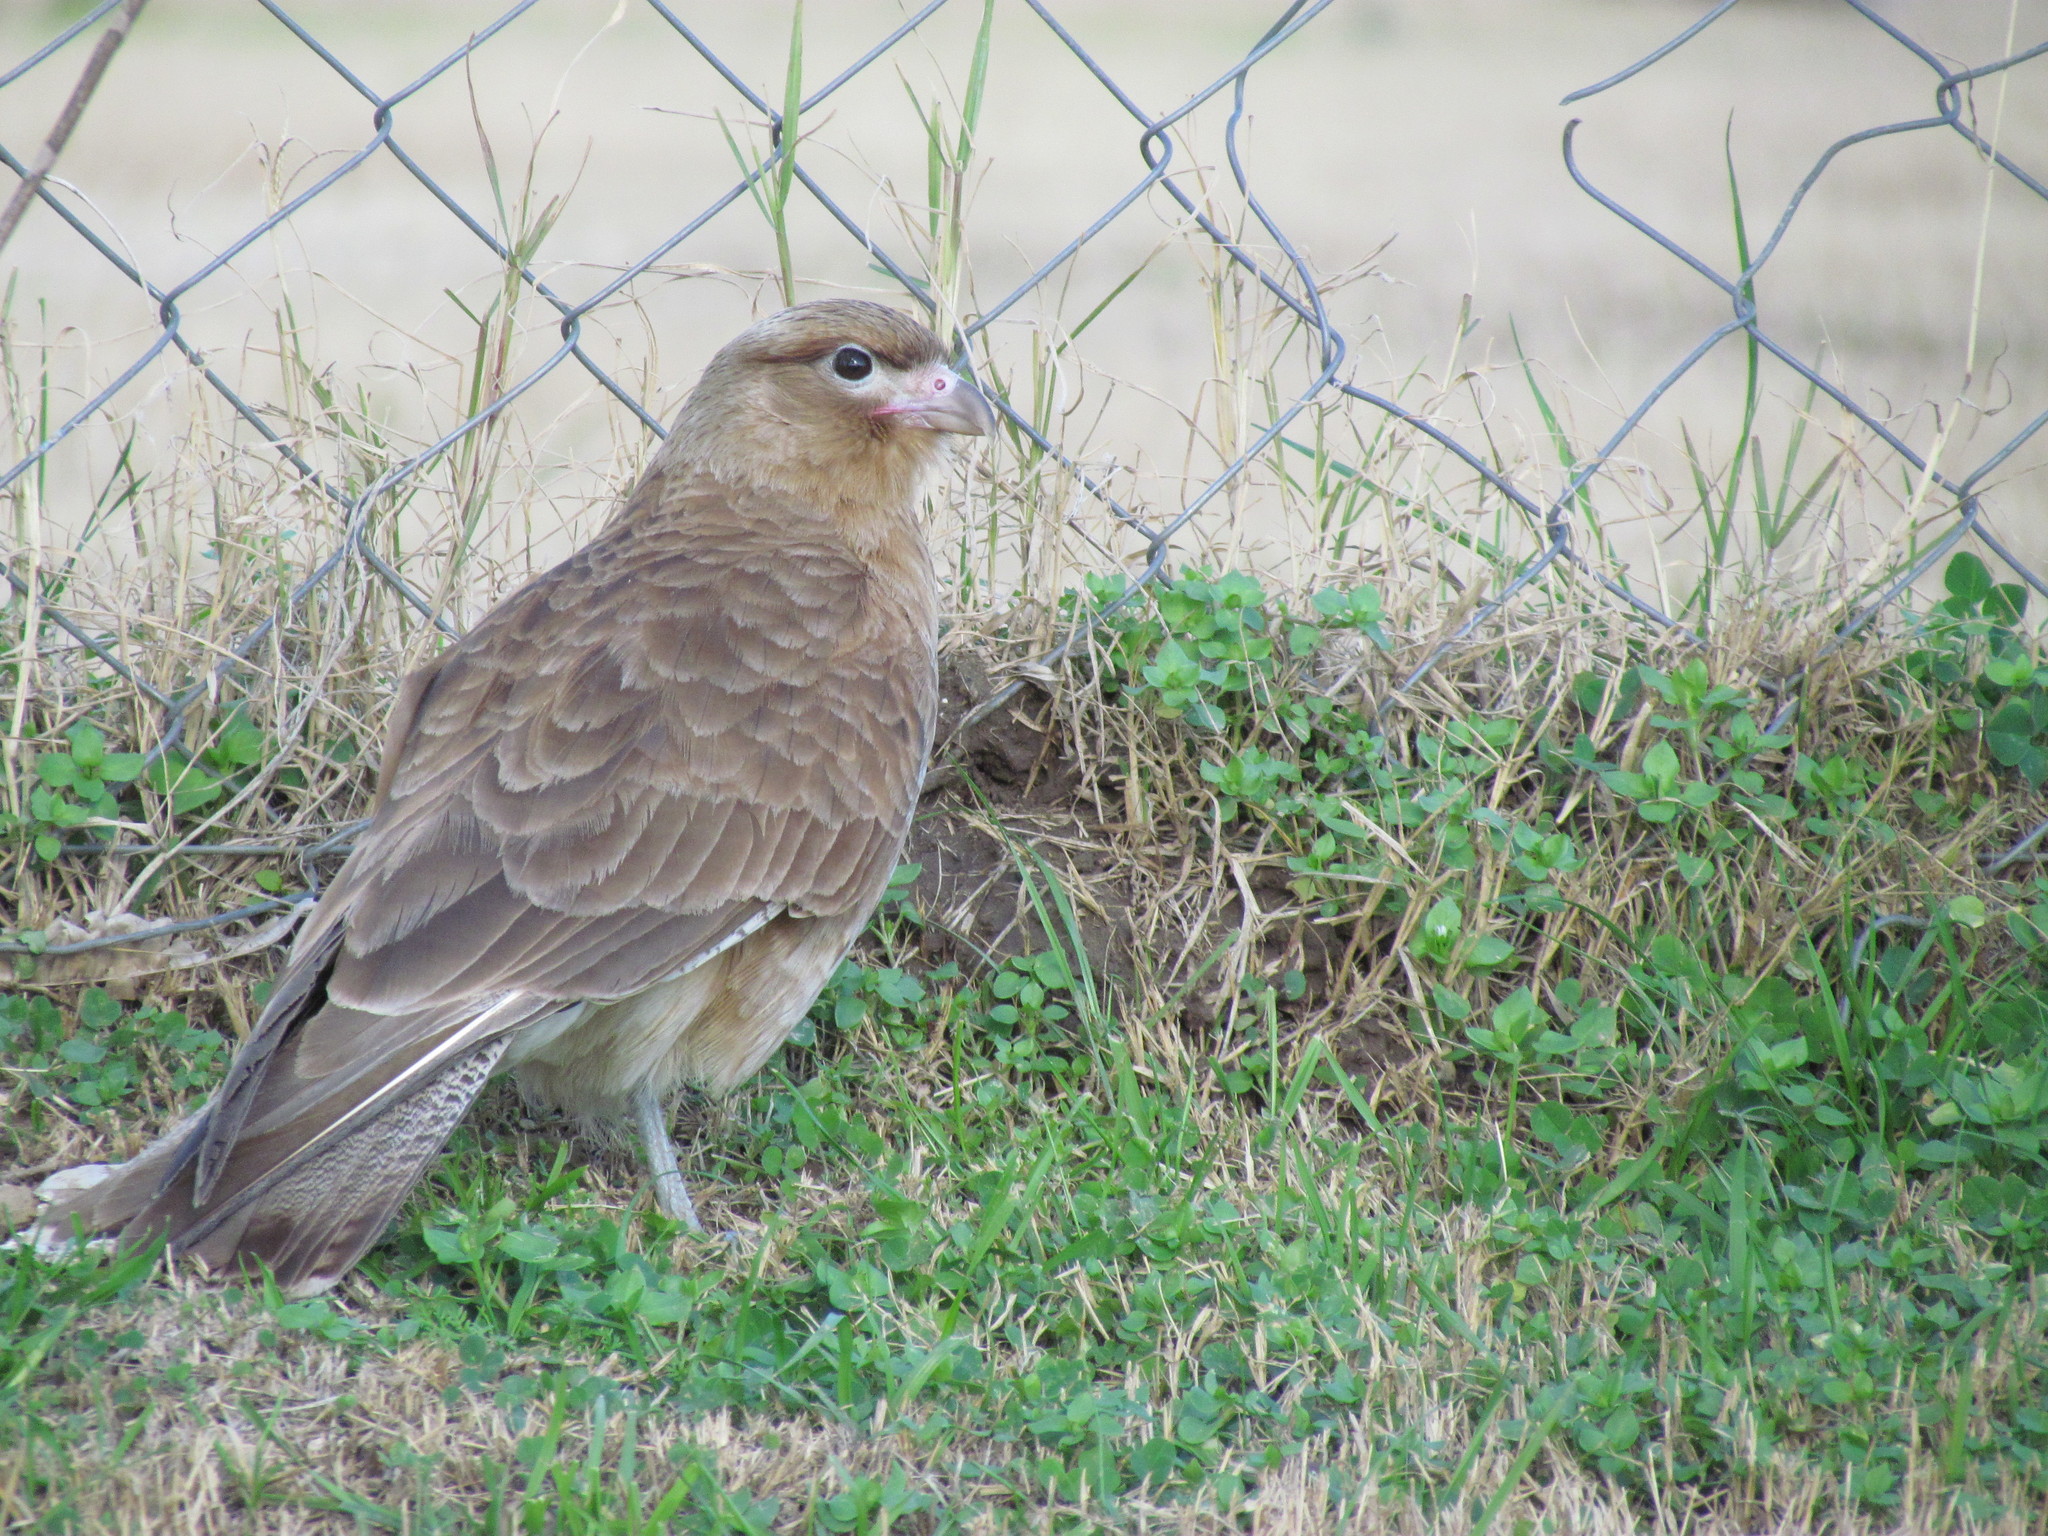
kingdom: Animalia
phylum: Chordata
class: Aves
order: Falconiformes
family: Falconidae
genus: Daptrius
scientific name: Daptrius
